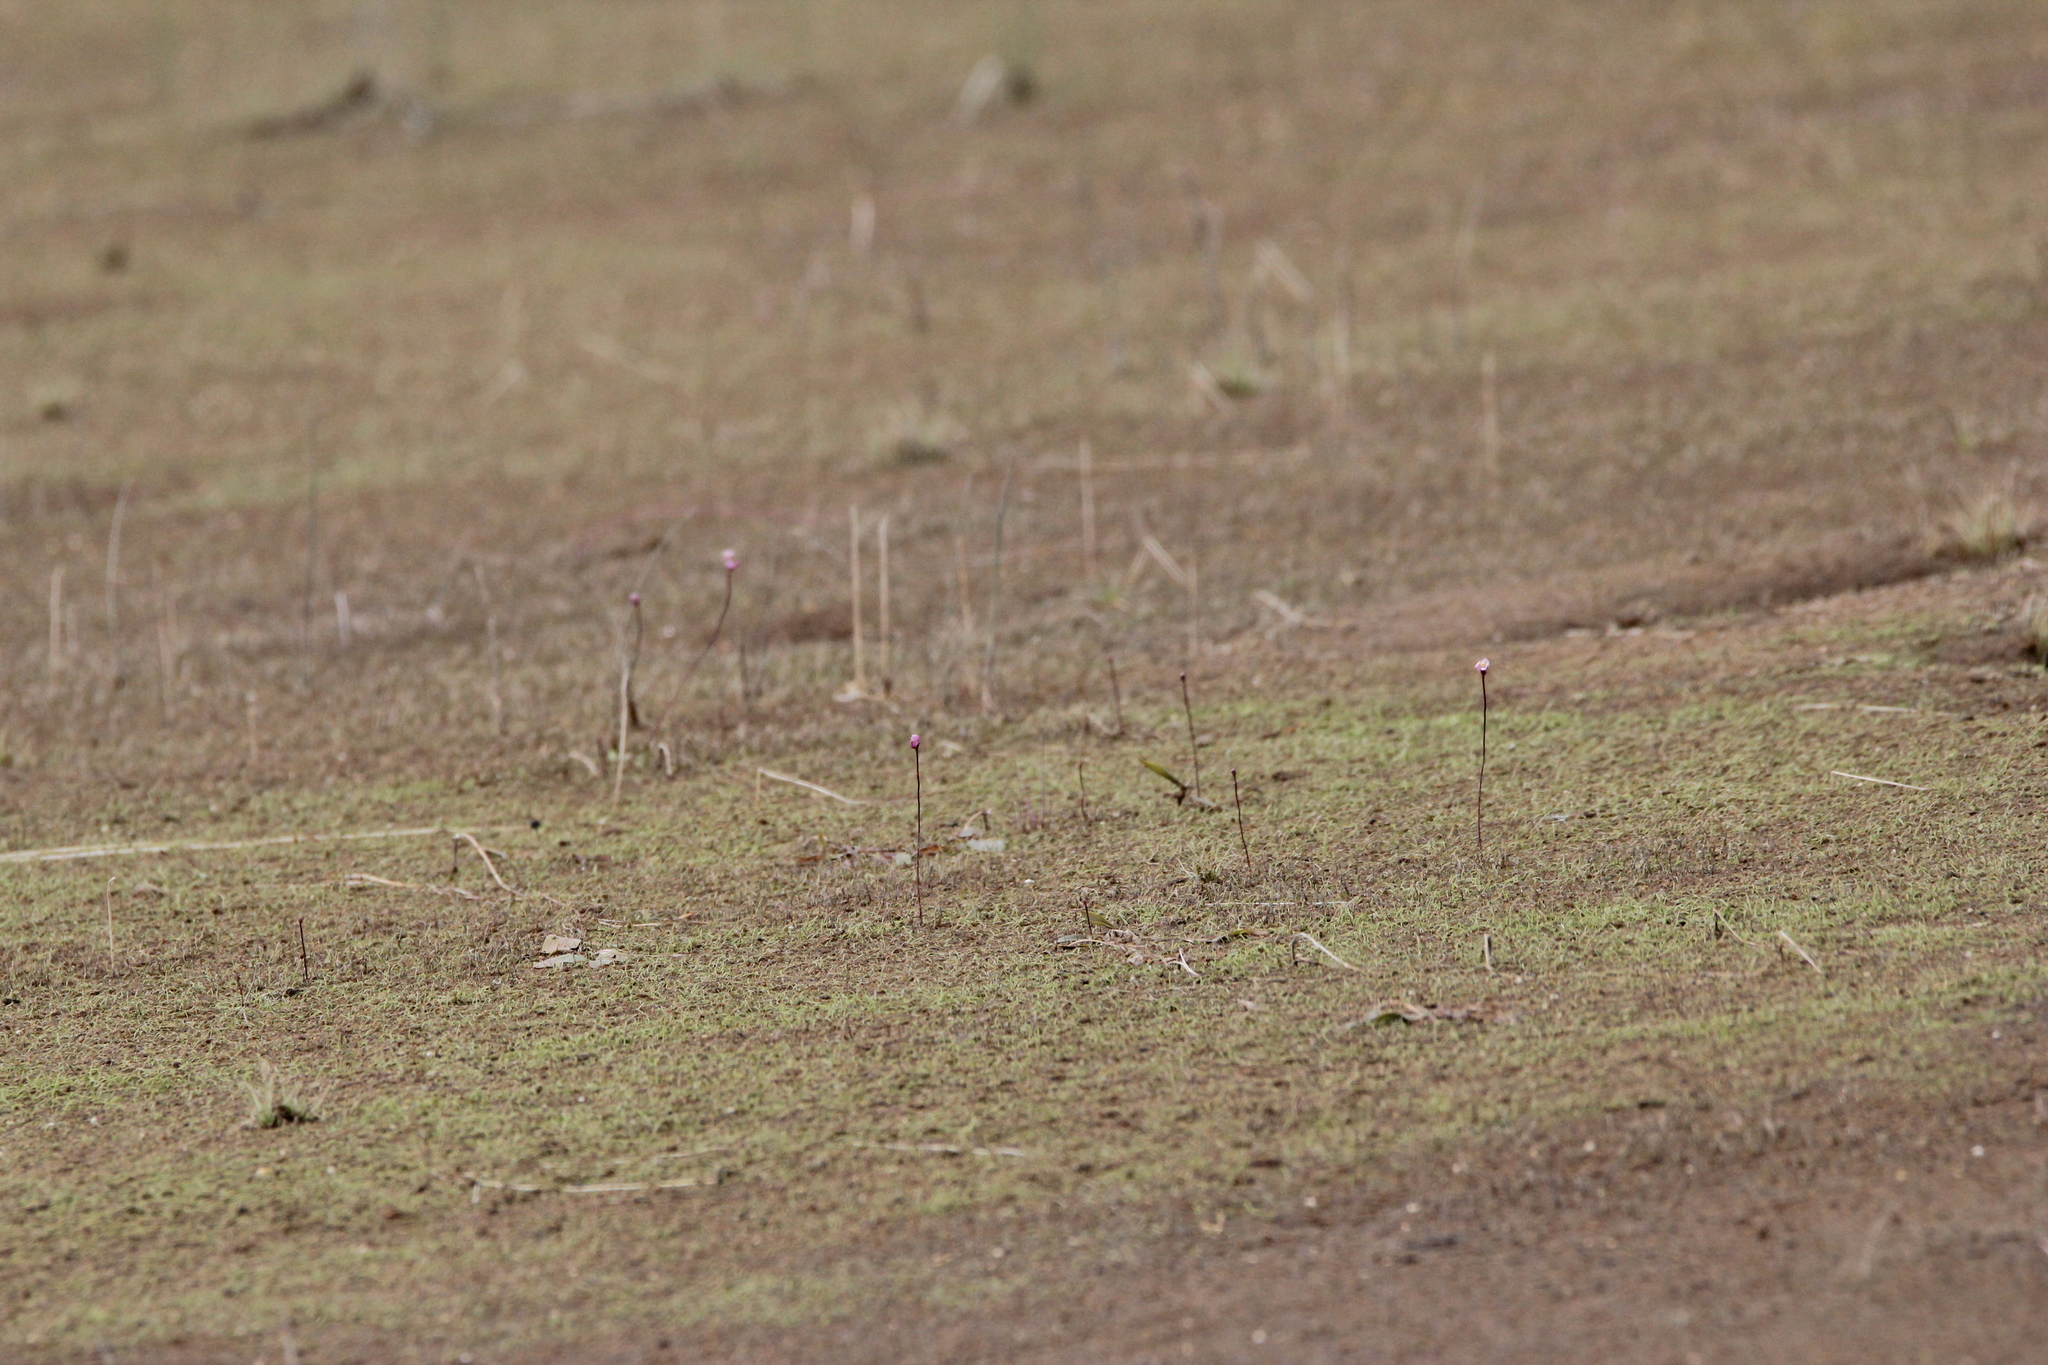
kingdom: Plantae
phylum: Tracheophyta
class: Magnoliopsida
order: Lamiales
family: Lentibulariaceae
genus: Utricularia
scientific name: Utricularia resupinata
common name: Northeastern bladderwort
